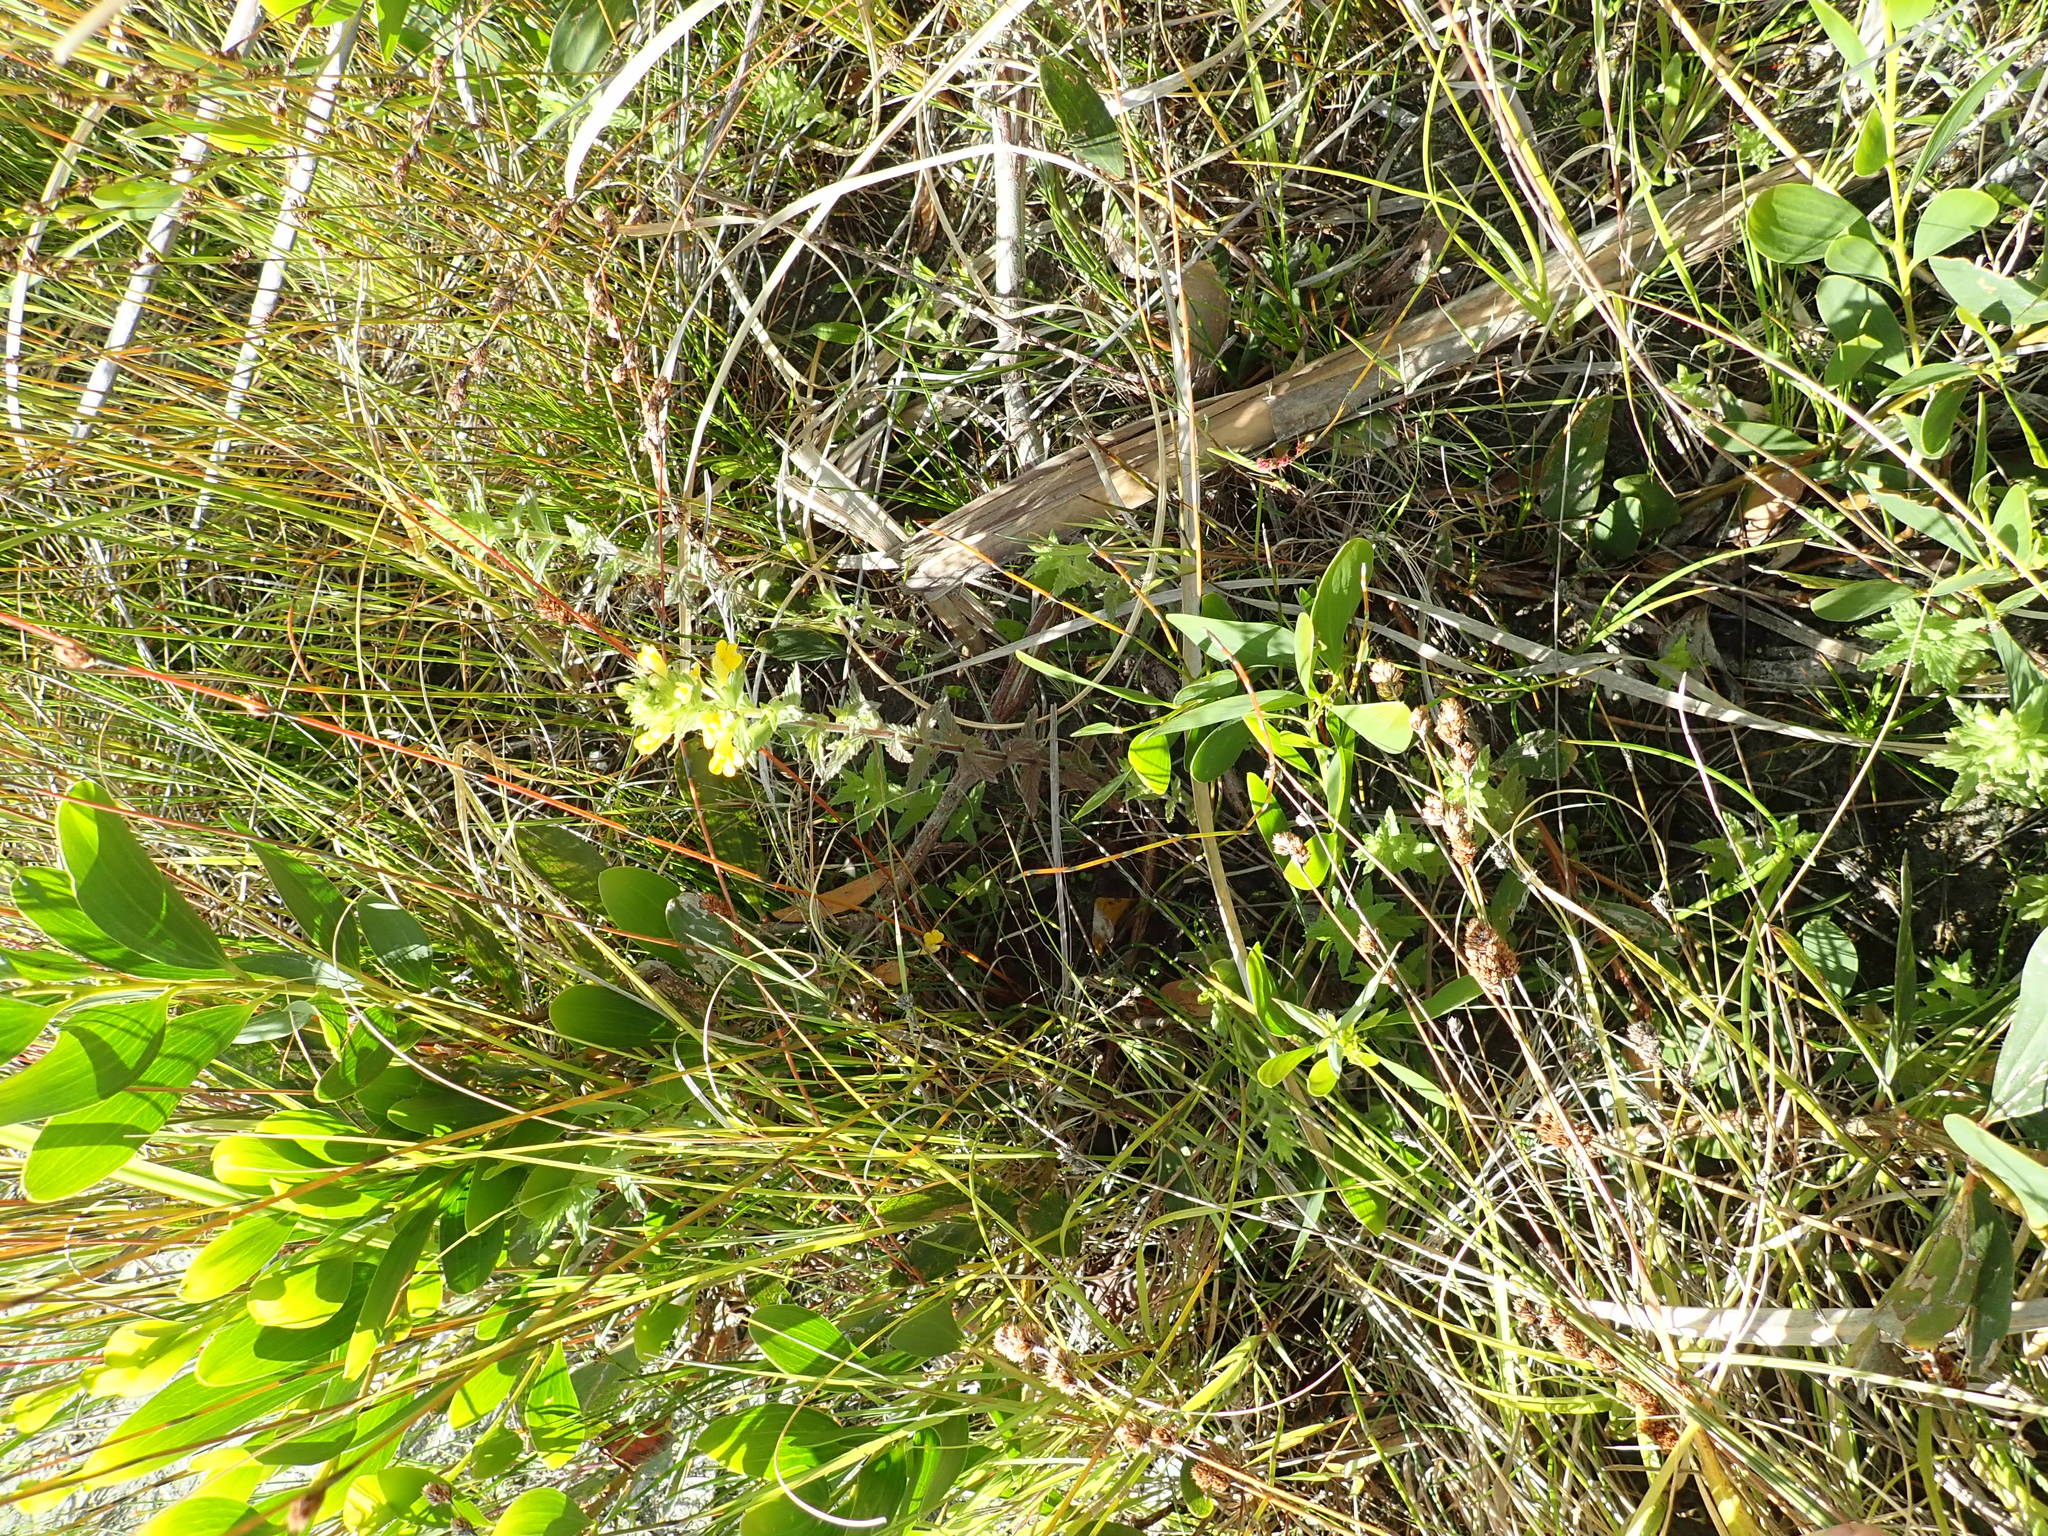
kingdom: Plantae
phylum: Tracheophyta
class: Magnoliopsida
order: Lamiales
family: Orobanchaceae
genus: Bellardia
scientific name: Bellardia viscosa
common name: Sticky parentucellia
